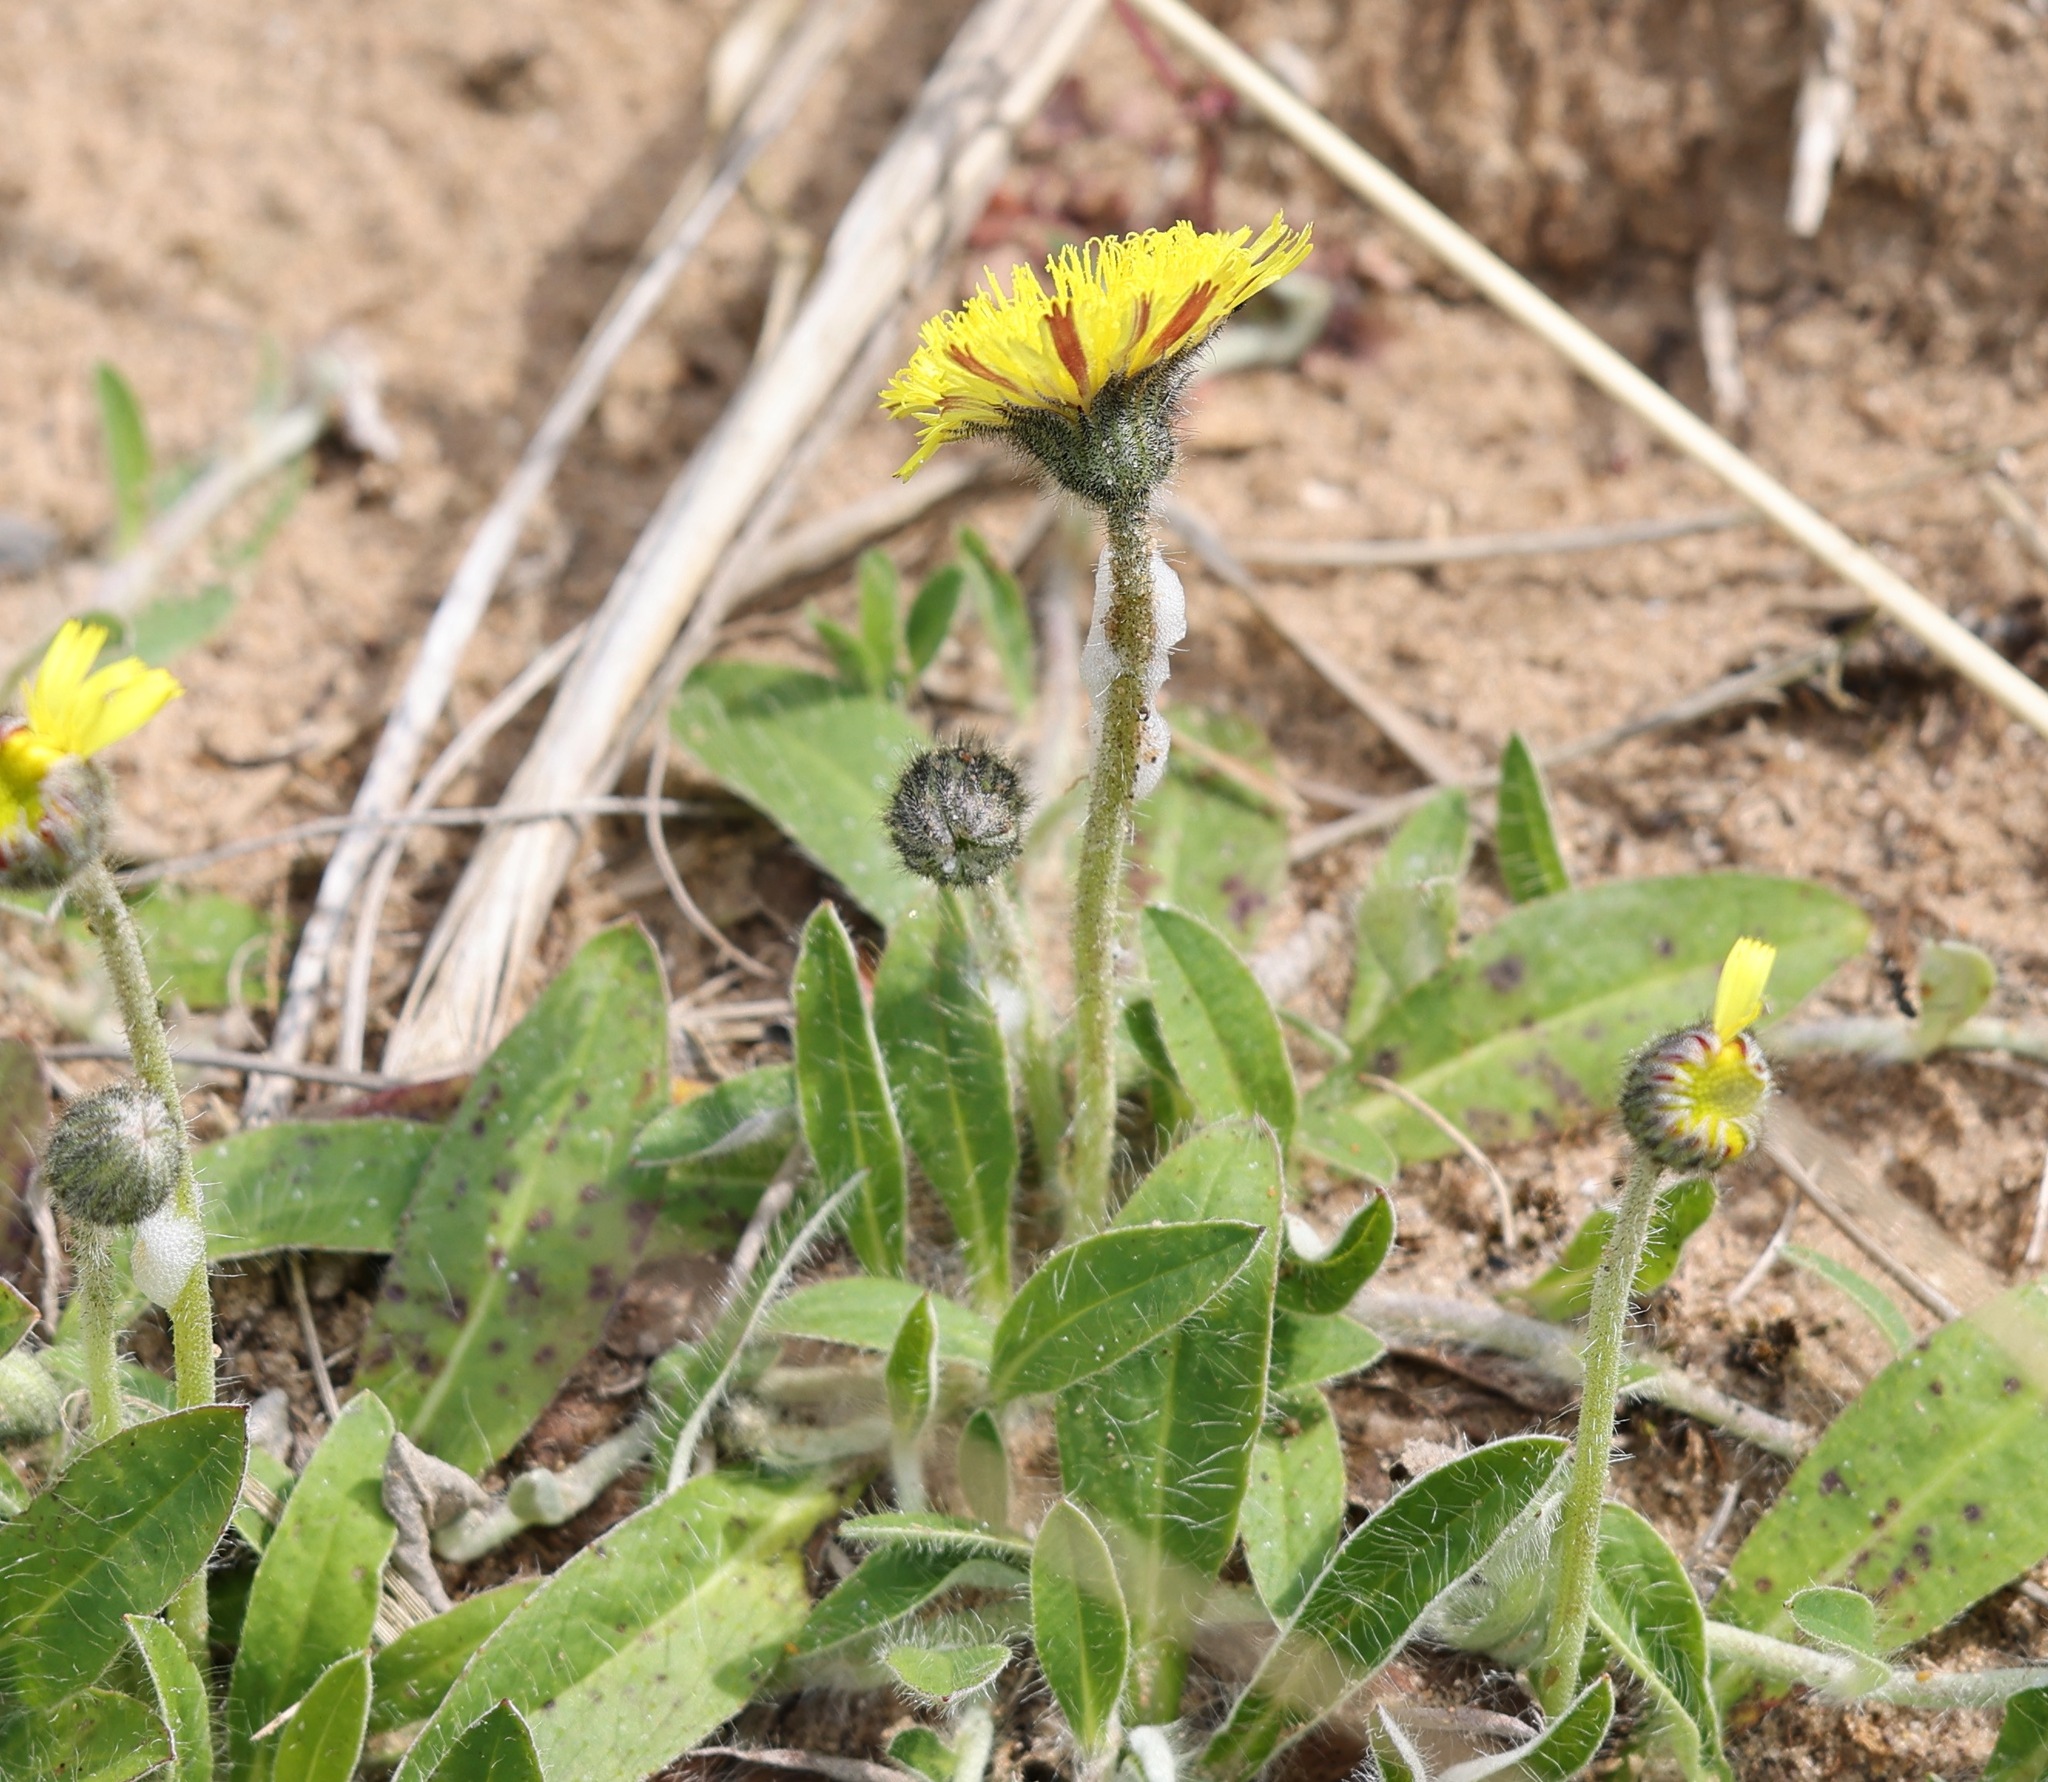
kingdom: Plantae
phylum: Tracheophyta
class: Magnoliopsida
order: Asterales
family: Asteraceae
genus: Pilosella
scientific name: Pilosella officinarum
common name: Mouse-ear hawkweed
